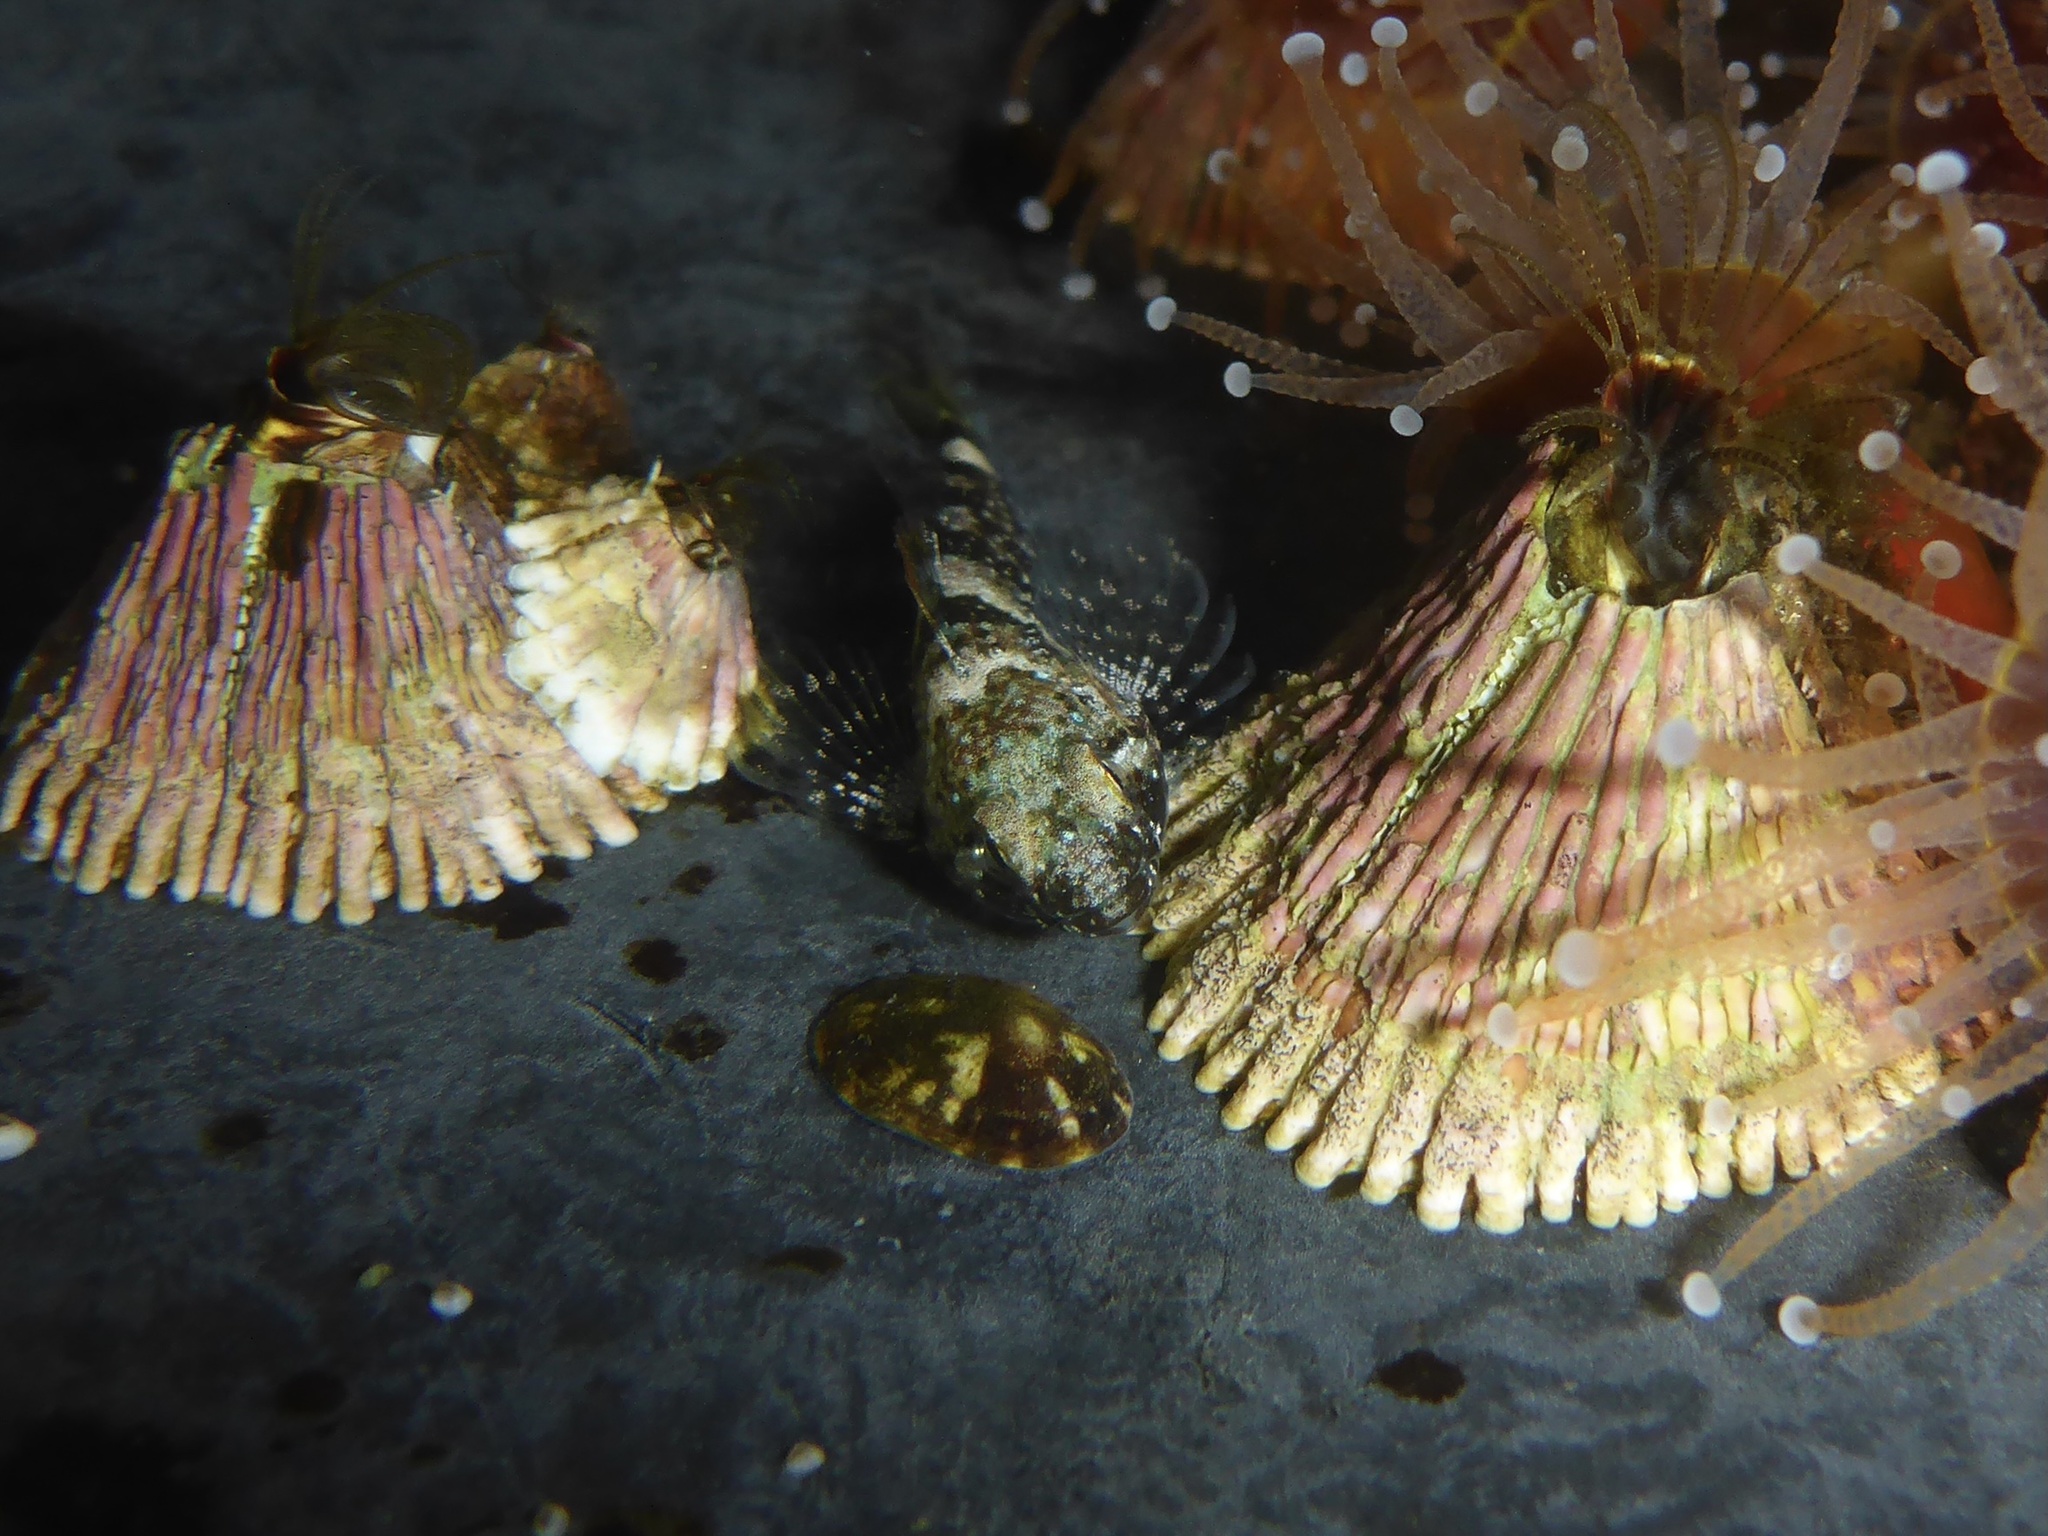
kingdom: Animalia
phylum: Arthropoda
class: Maxillopoda
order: Sessilia
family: Tetraclitidae
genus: Tetraclita
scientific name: Tetraclita rubescens
